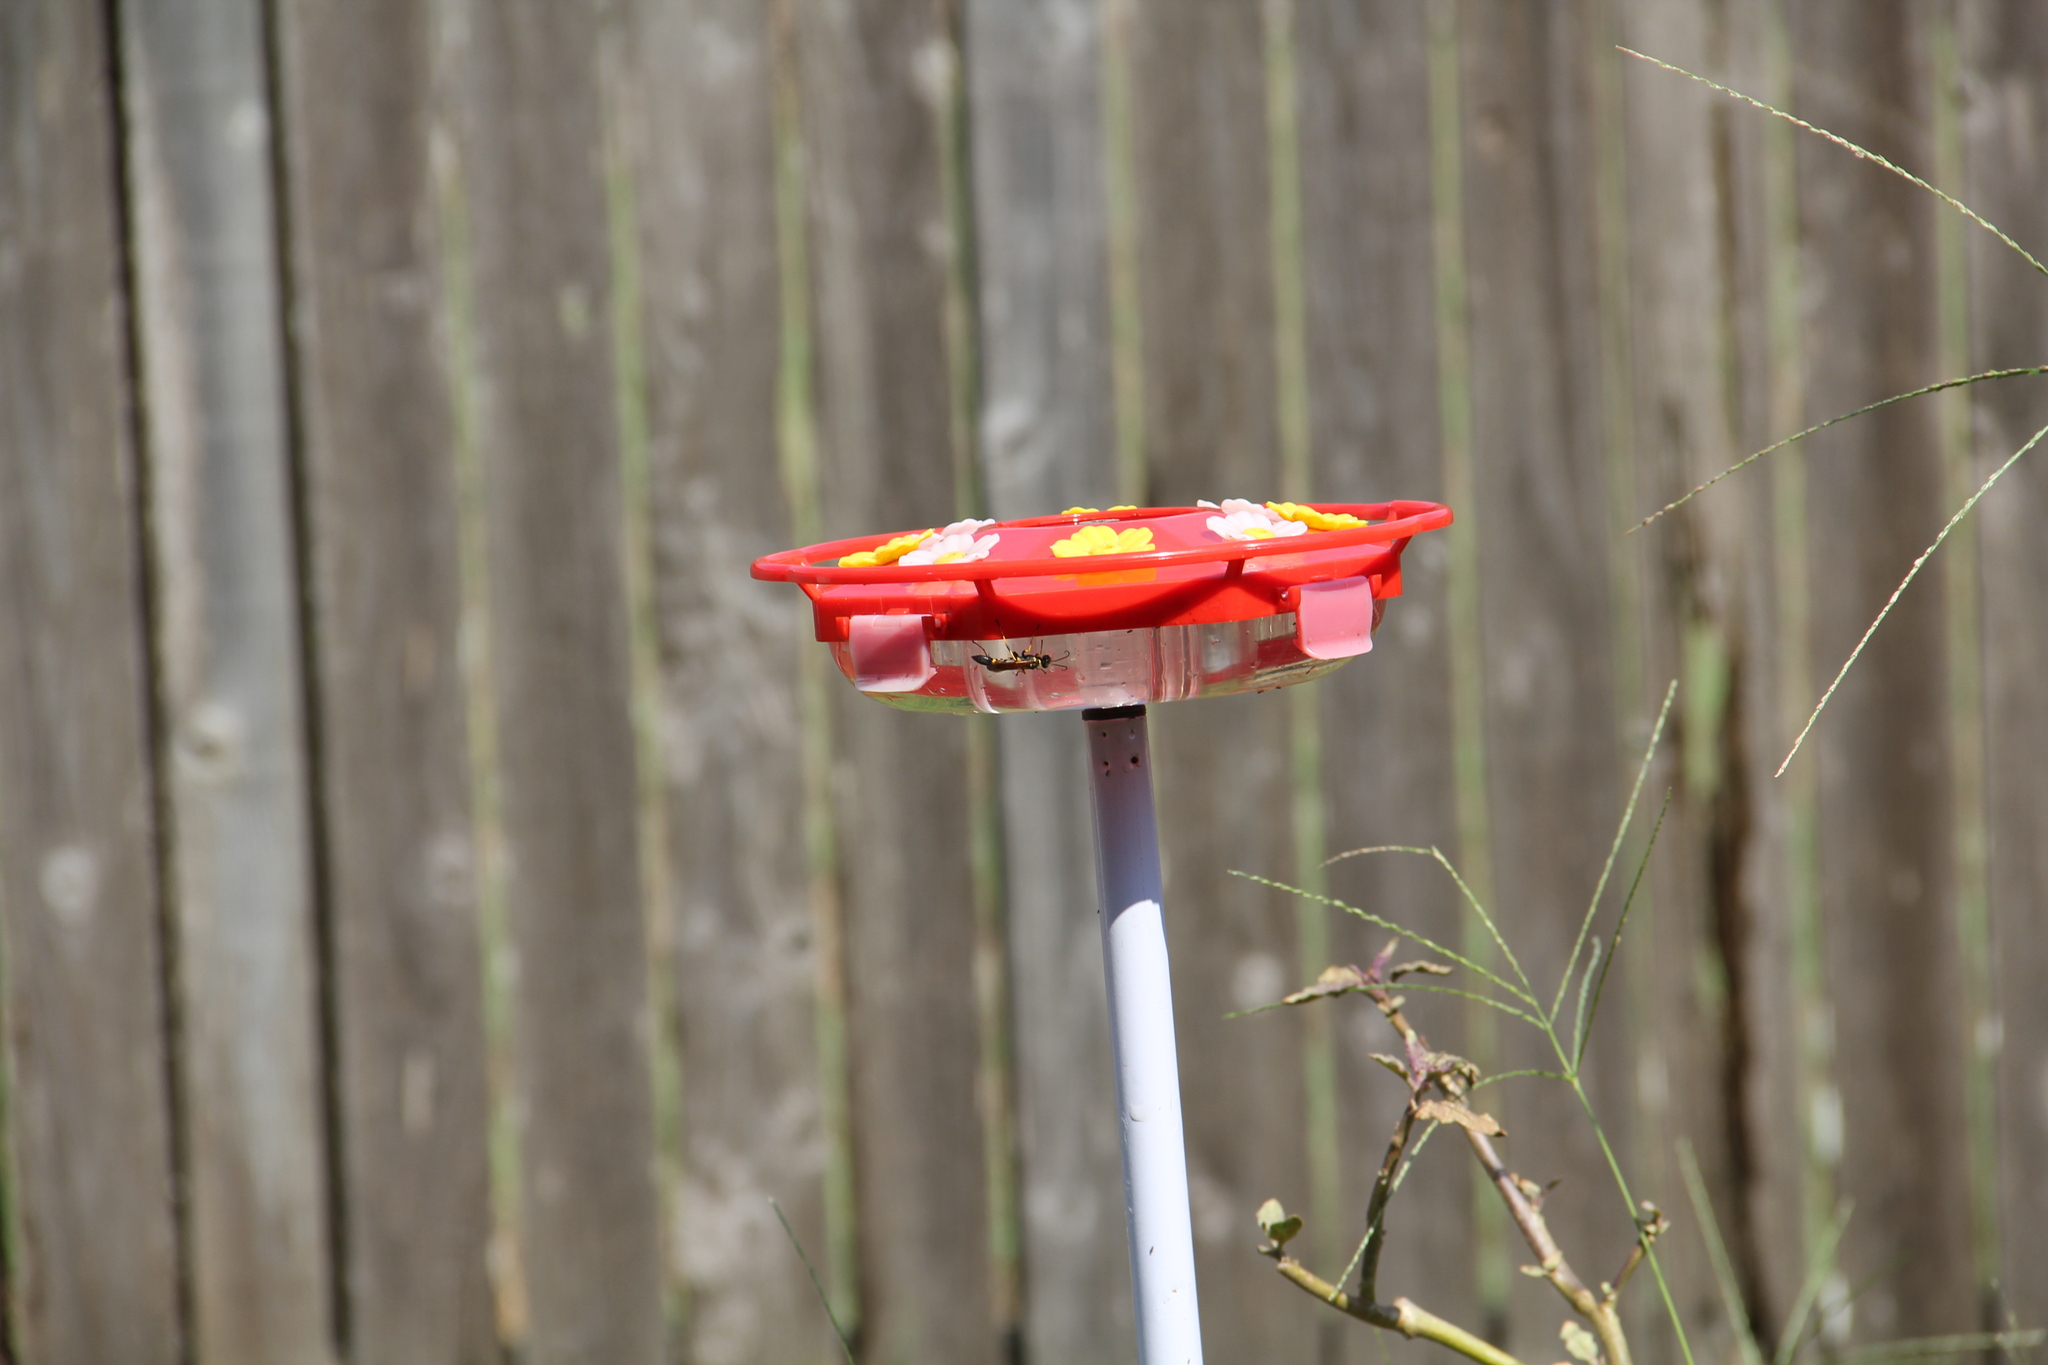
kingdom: Animalia
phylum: Arthropoda
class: Insecta
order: Hymenoptera
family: Sphecidae
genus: Sceliphron
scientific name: Sceliphron caementarium
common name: Mud dauber
